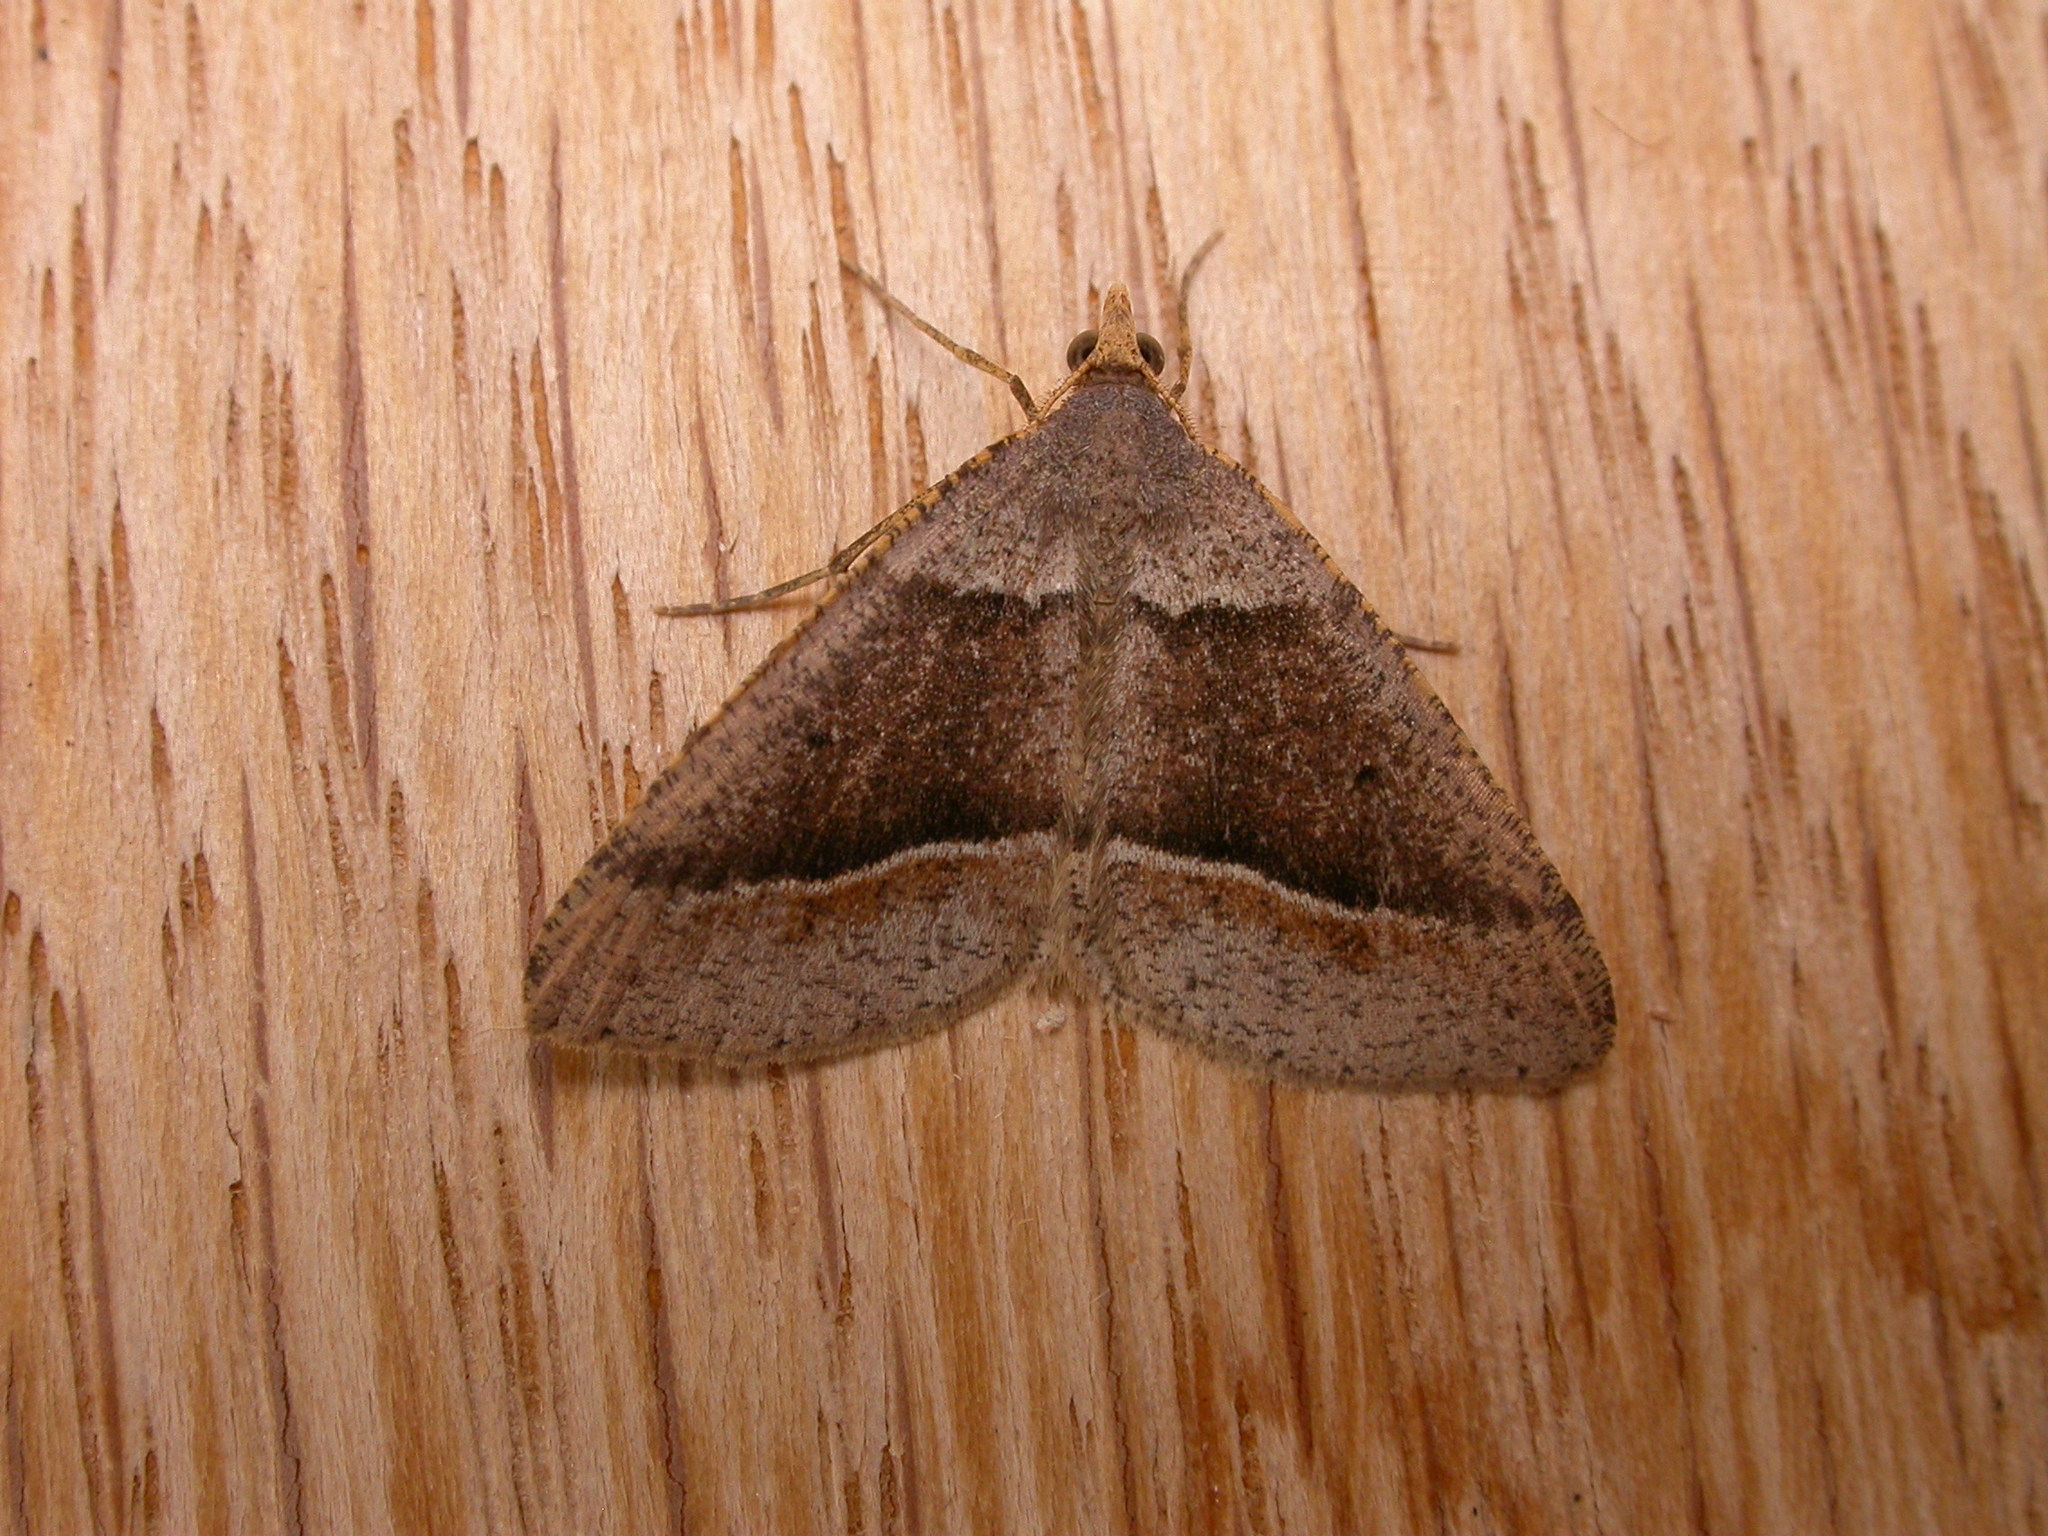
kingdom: Animalia
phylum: Arthropoda
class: Insecta
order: Lepidoptera
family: Geometridae
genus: Parosteodes
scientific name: Parosteodes fictiliaria
